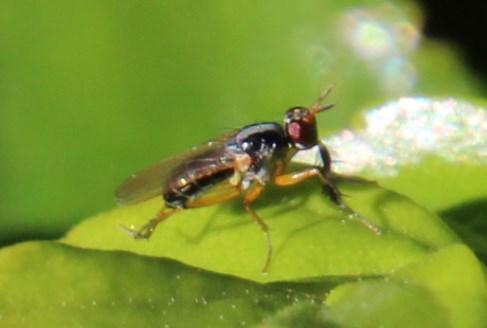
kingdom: Animalia
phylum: Arthropoda
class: Insecta
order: Diptera
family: Muscidae
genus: Anaphalantus
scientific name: Anaphalantus longicornis
